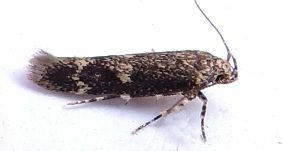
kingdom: Animalia
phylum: Arthropoda
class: Insecta
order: Lepidoptera
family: Gelechiidae
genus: Trypanisma
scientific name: Trypanisma prudens
